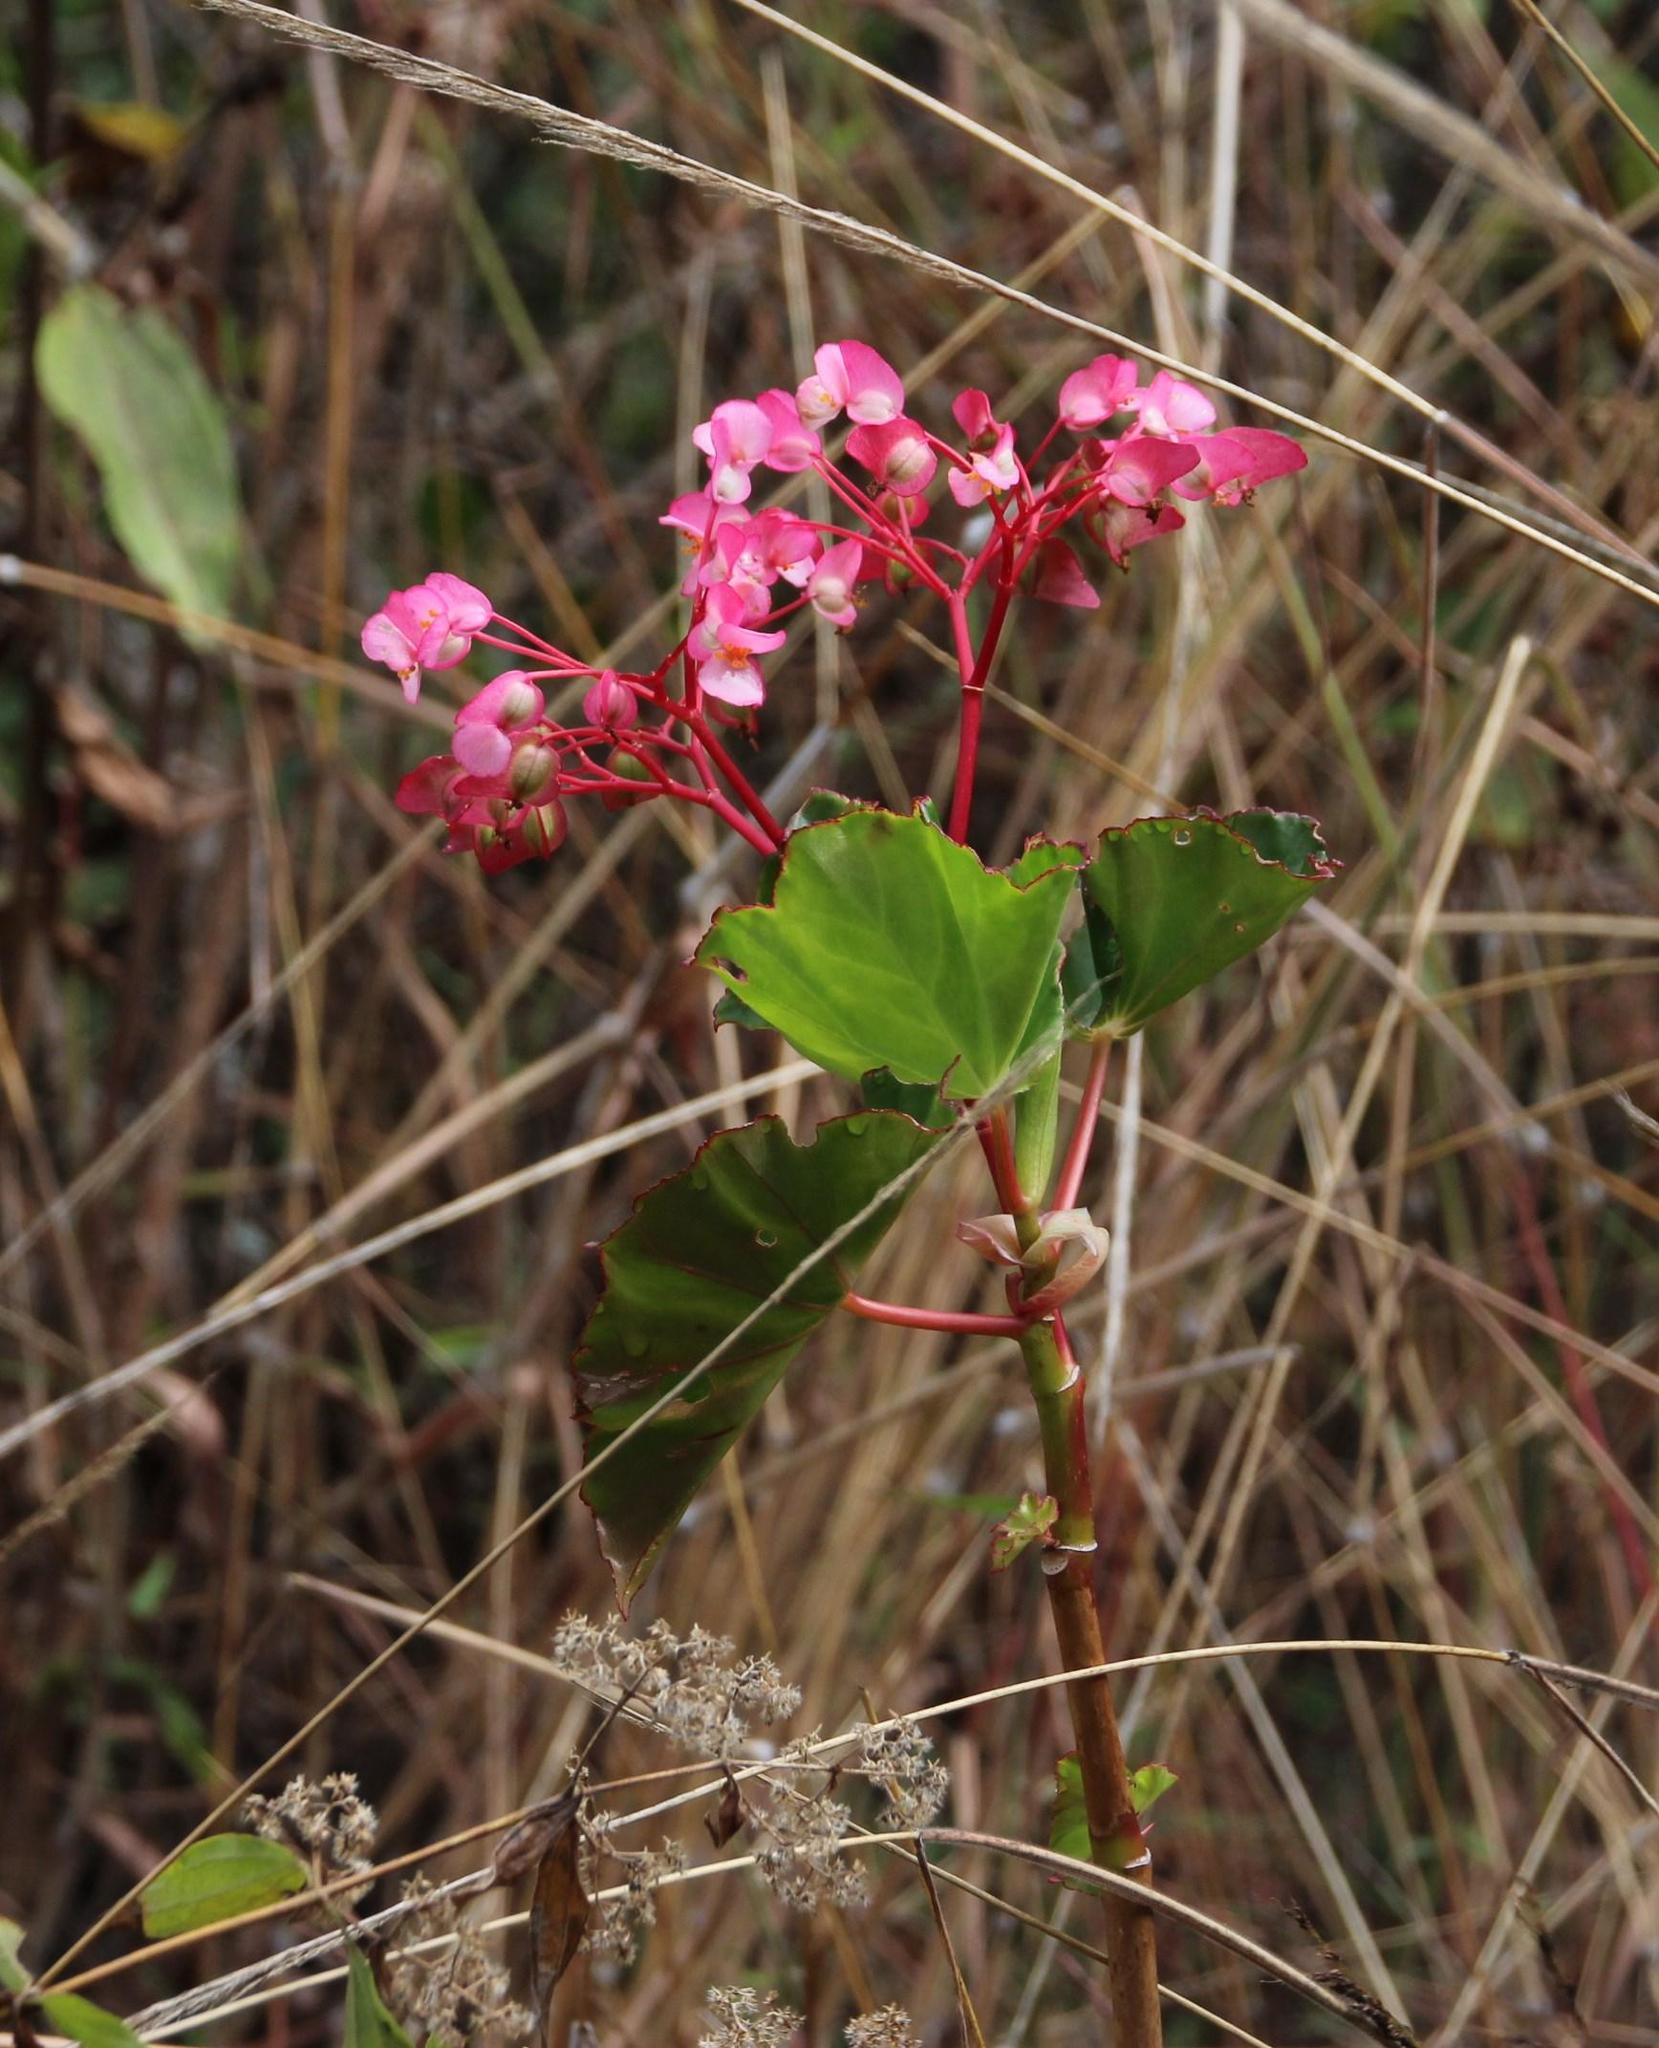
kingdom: Plantae
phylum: Tracheophyta
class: Magnoliopsida
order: Cucurbitales
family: Begoniaceae
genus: Begonia
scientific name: Begonia bracteosa
